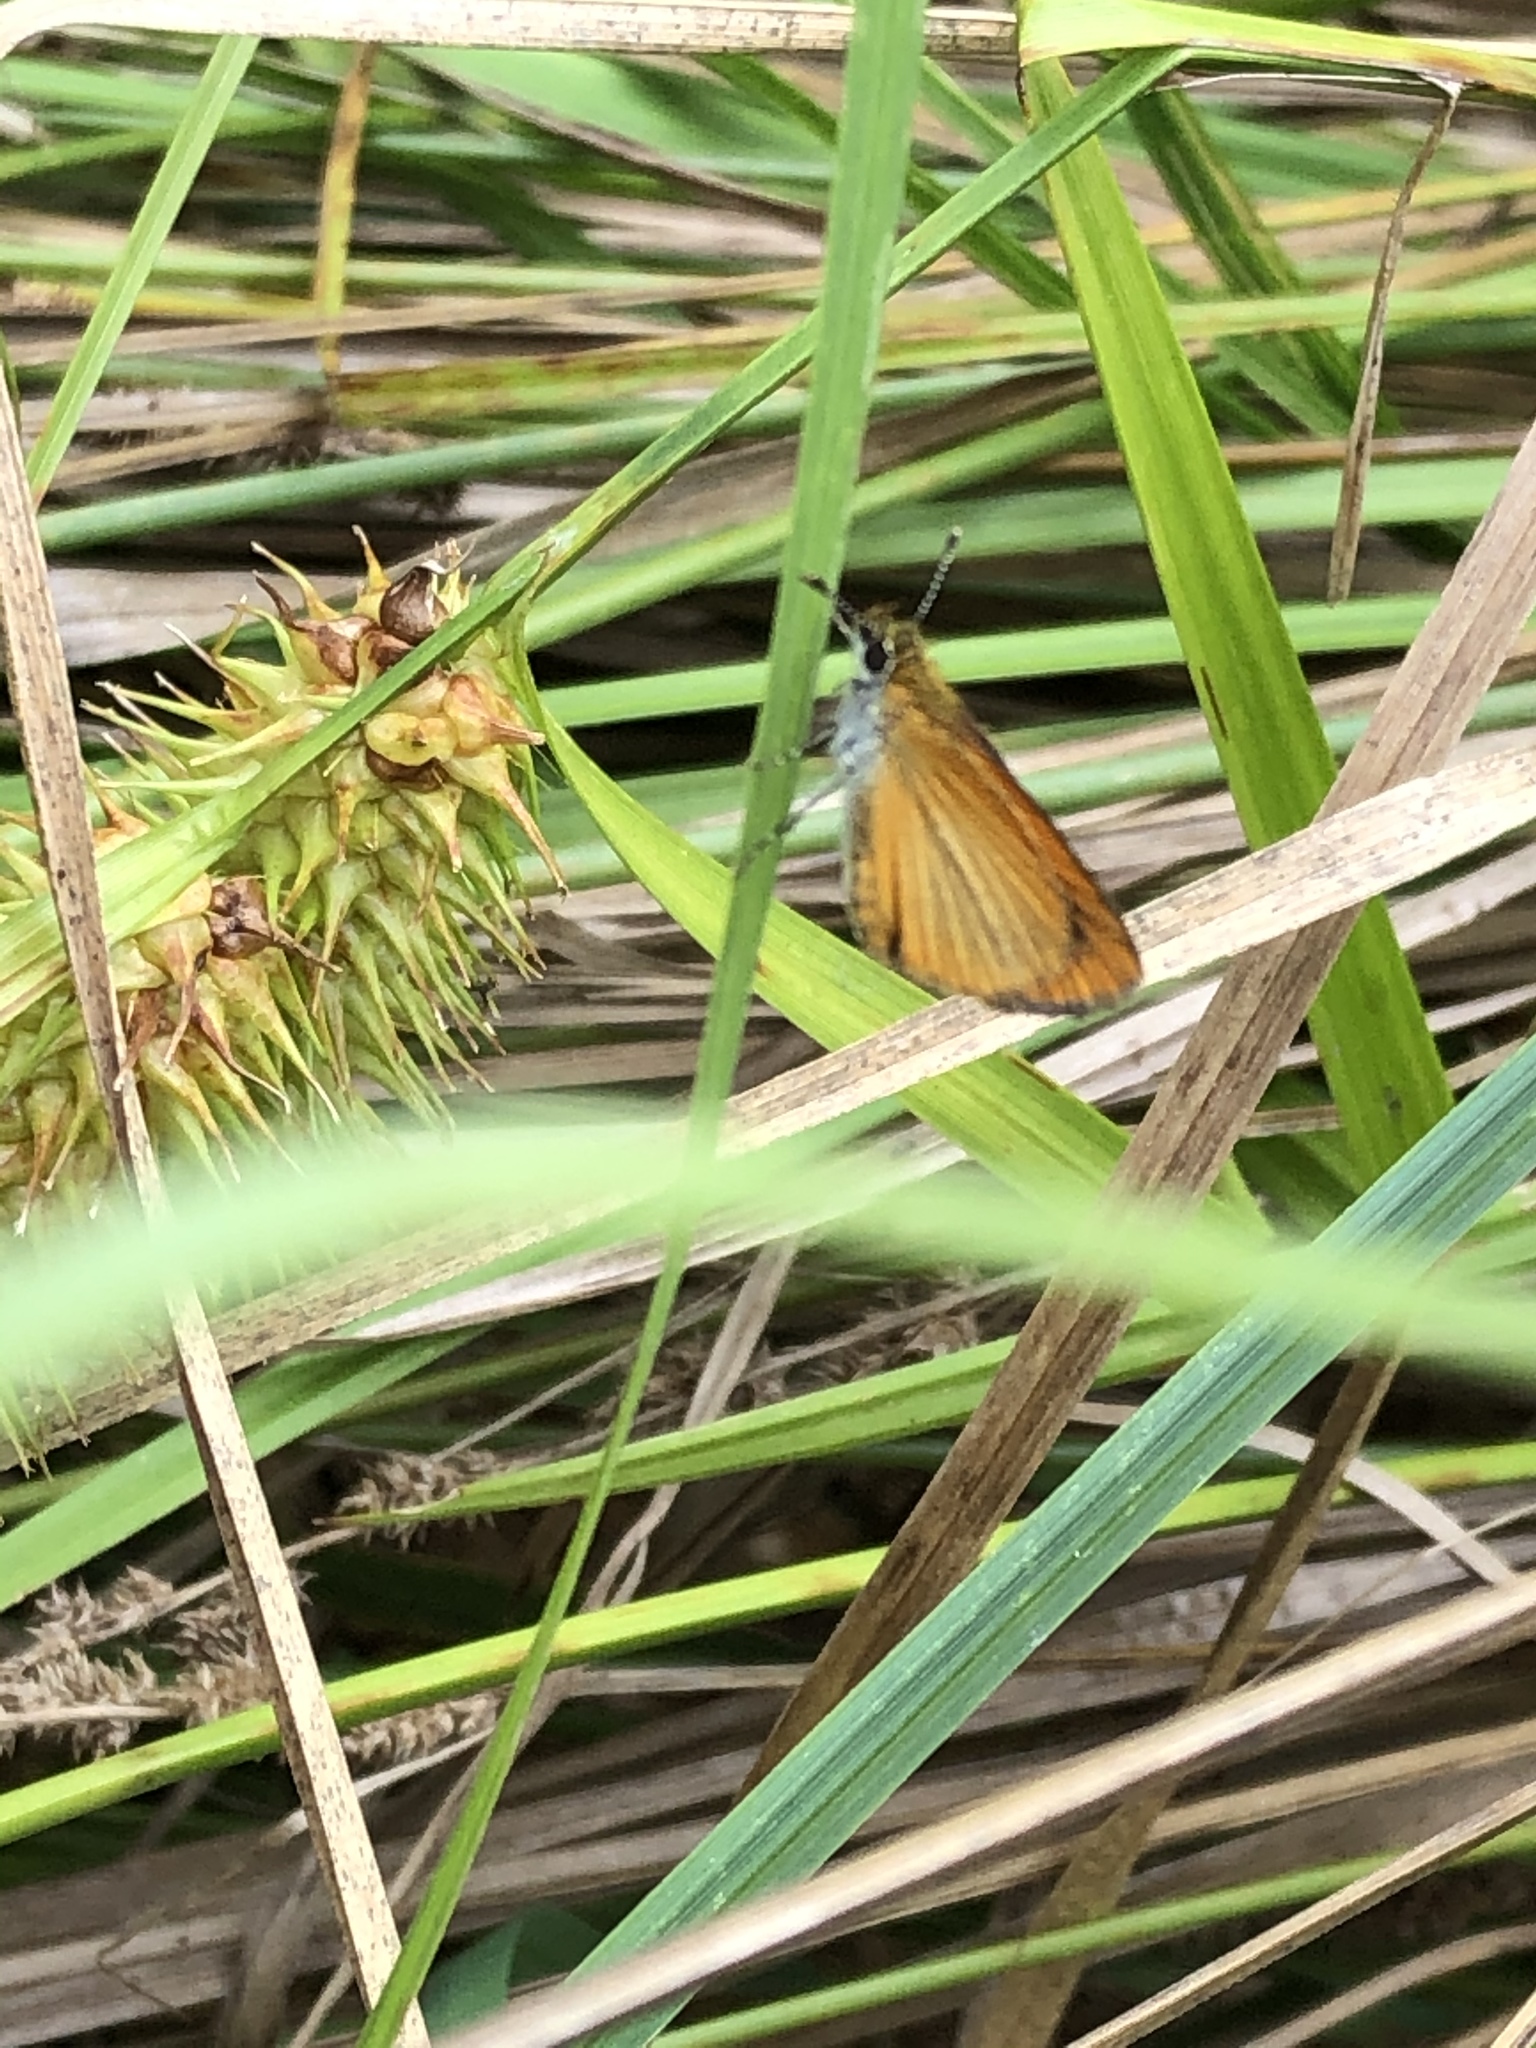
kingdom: Animalia
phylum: Arthropoda
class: Insecta
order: Lepidoptera
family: Hesperiidae
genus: Ancyloxypha
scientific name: Ancyloxypha numitor
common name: Least skipper
